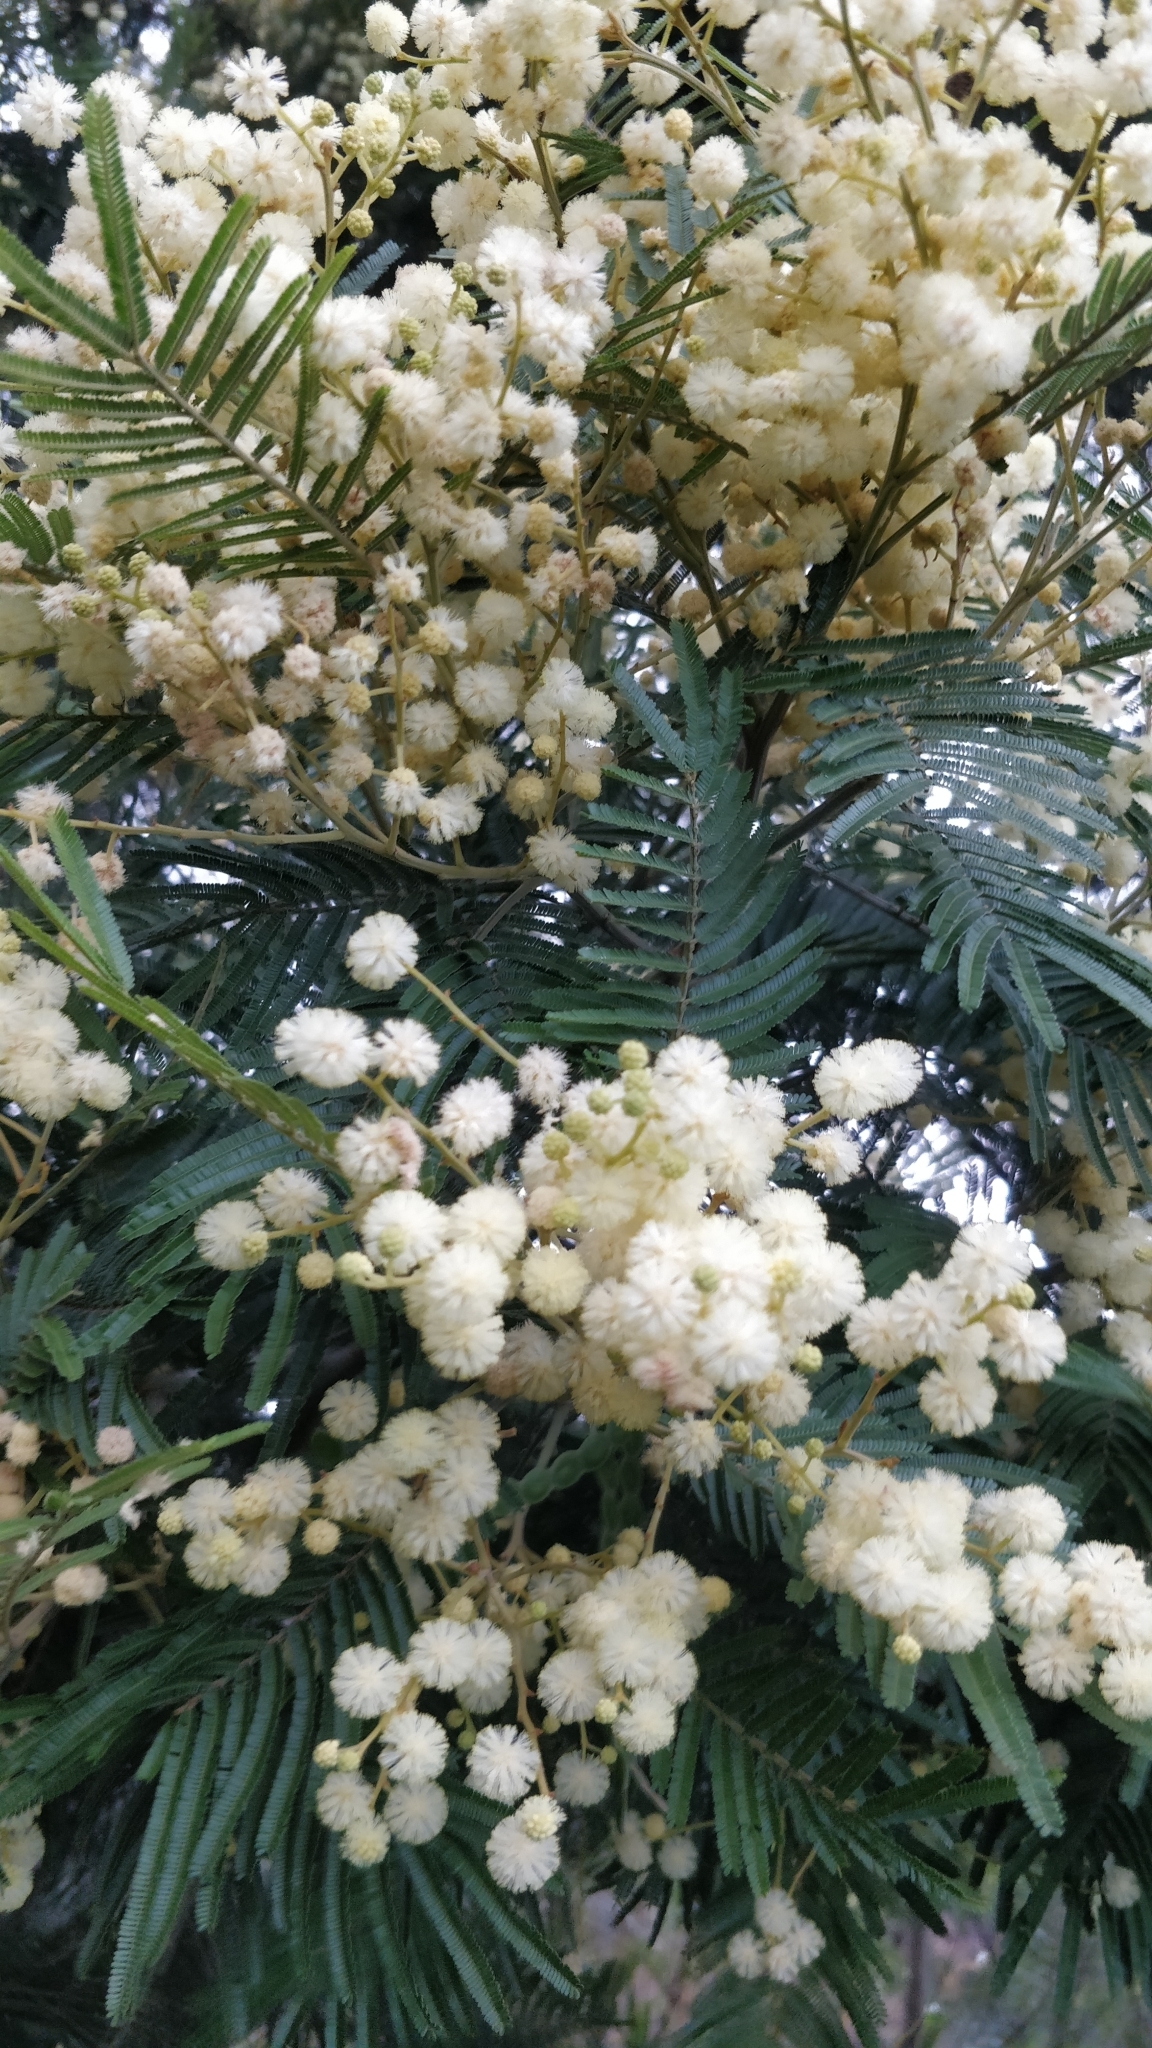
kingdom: Plantae
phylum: Tracheophyta
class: Magnoliopsida
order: Fabales
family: Fabaceae
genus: Acacia
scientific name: Acacia mearnsii
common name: Black wattle
